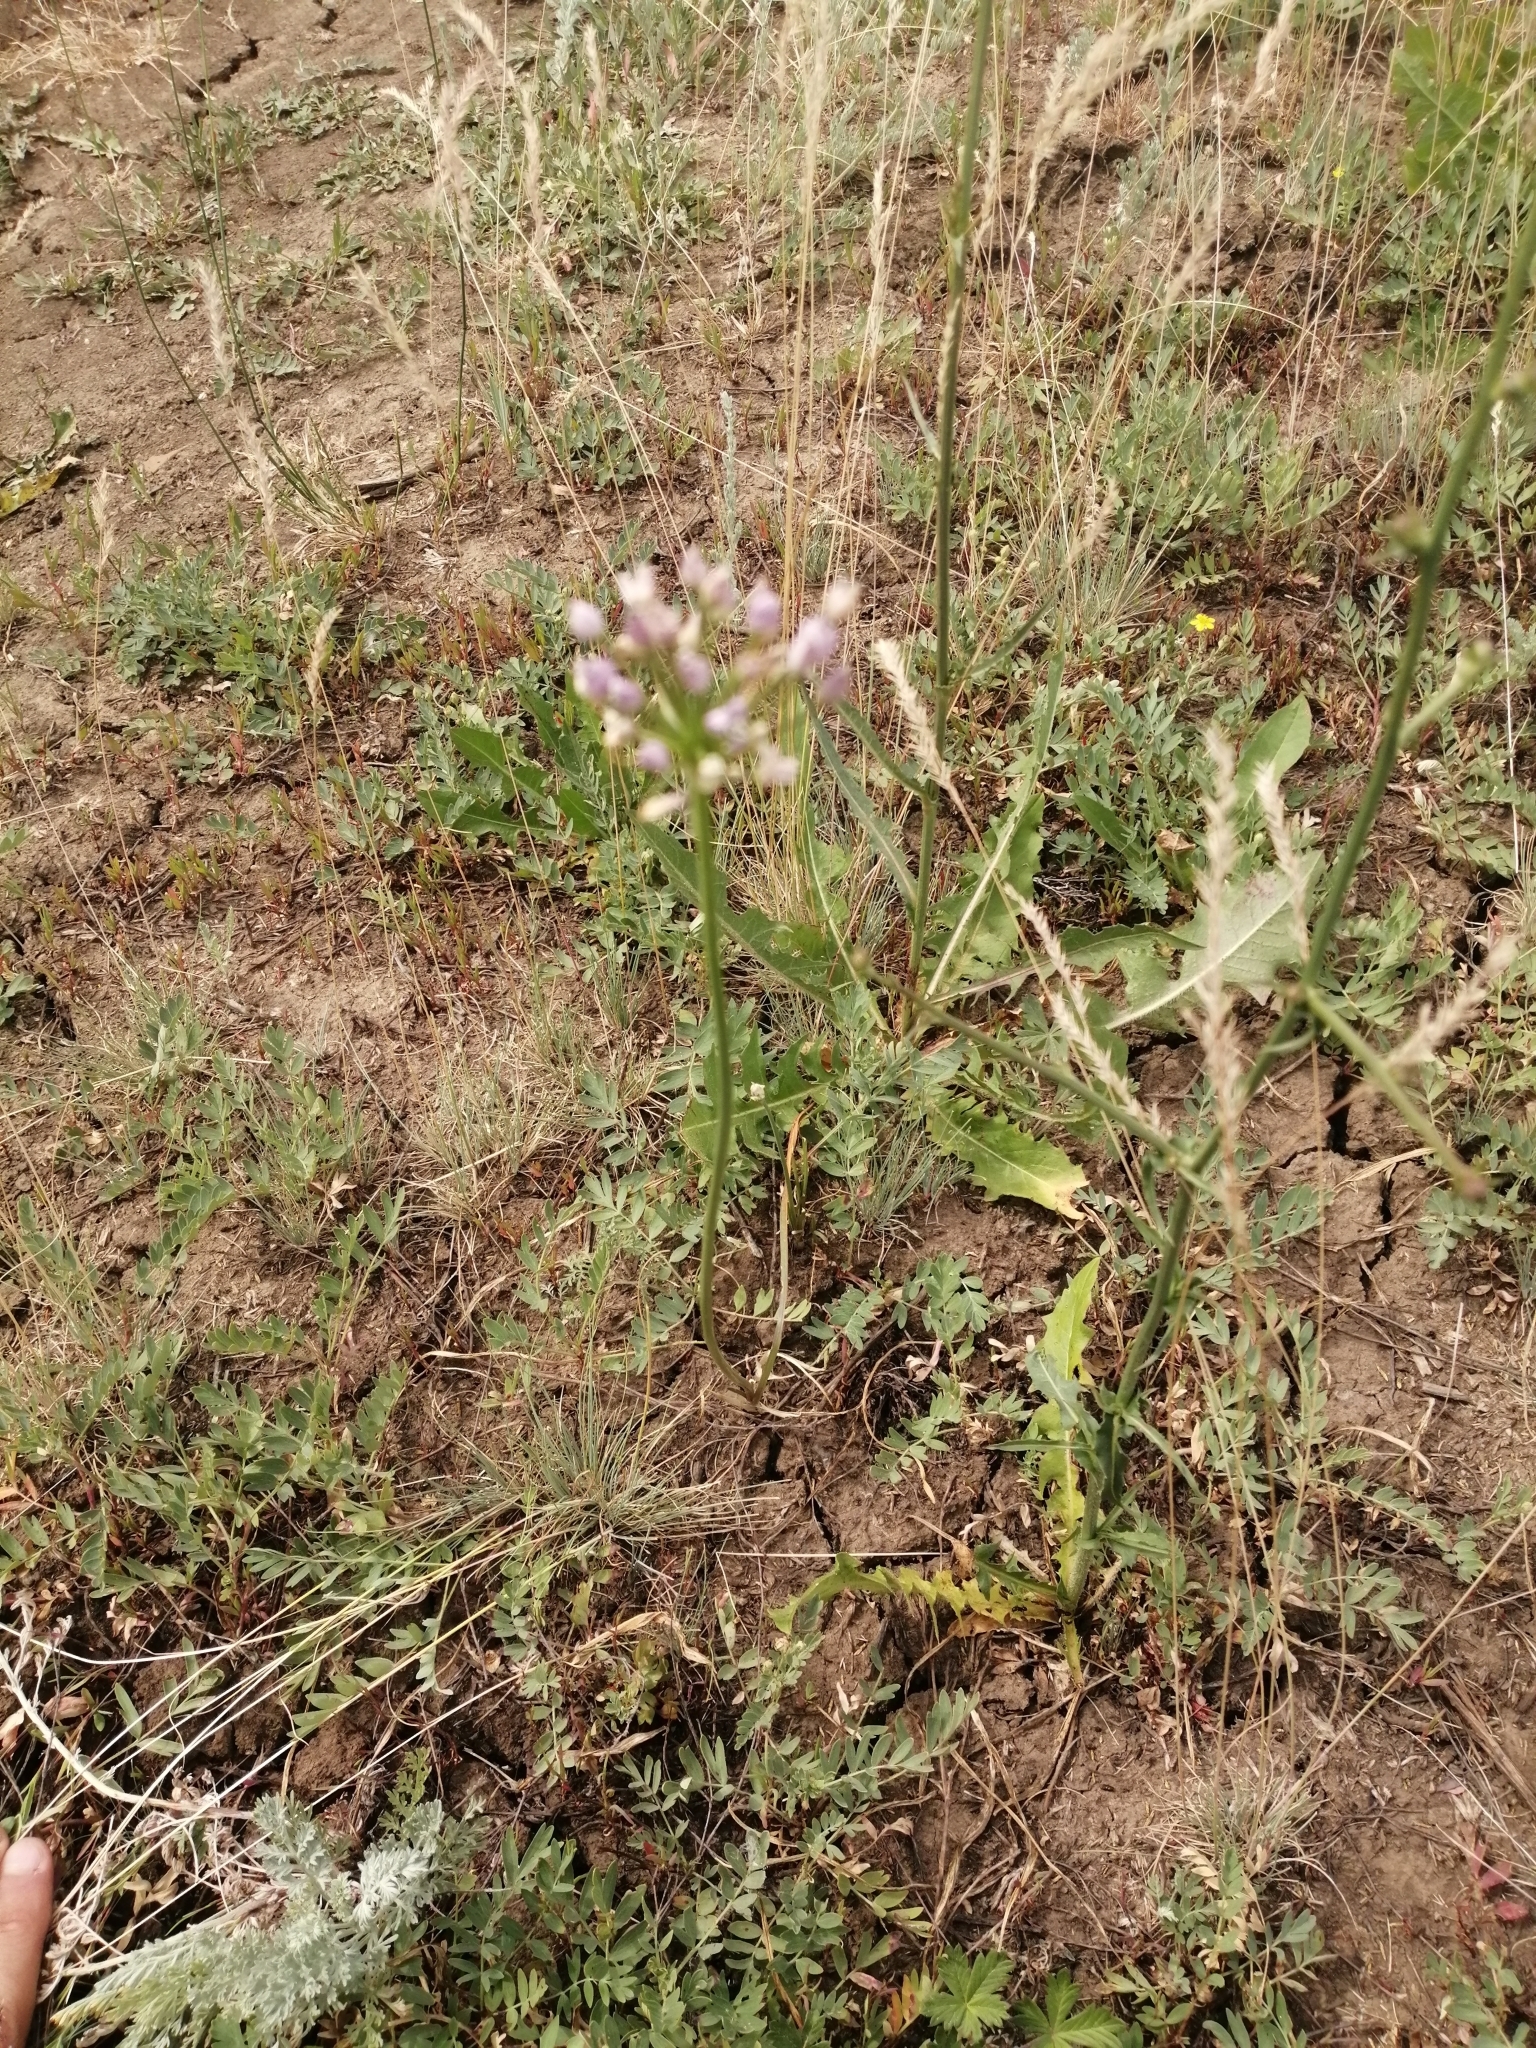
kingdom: Plantae
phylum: Tracheophyta
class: Liliopsida
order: Asparagales
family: Amaryllidaceae
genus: Allium
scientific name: Allium angulosum
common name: Mouse garlic
